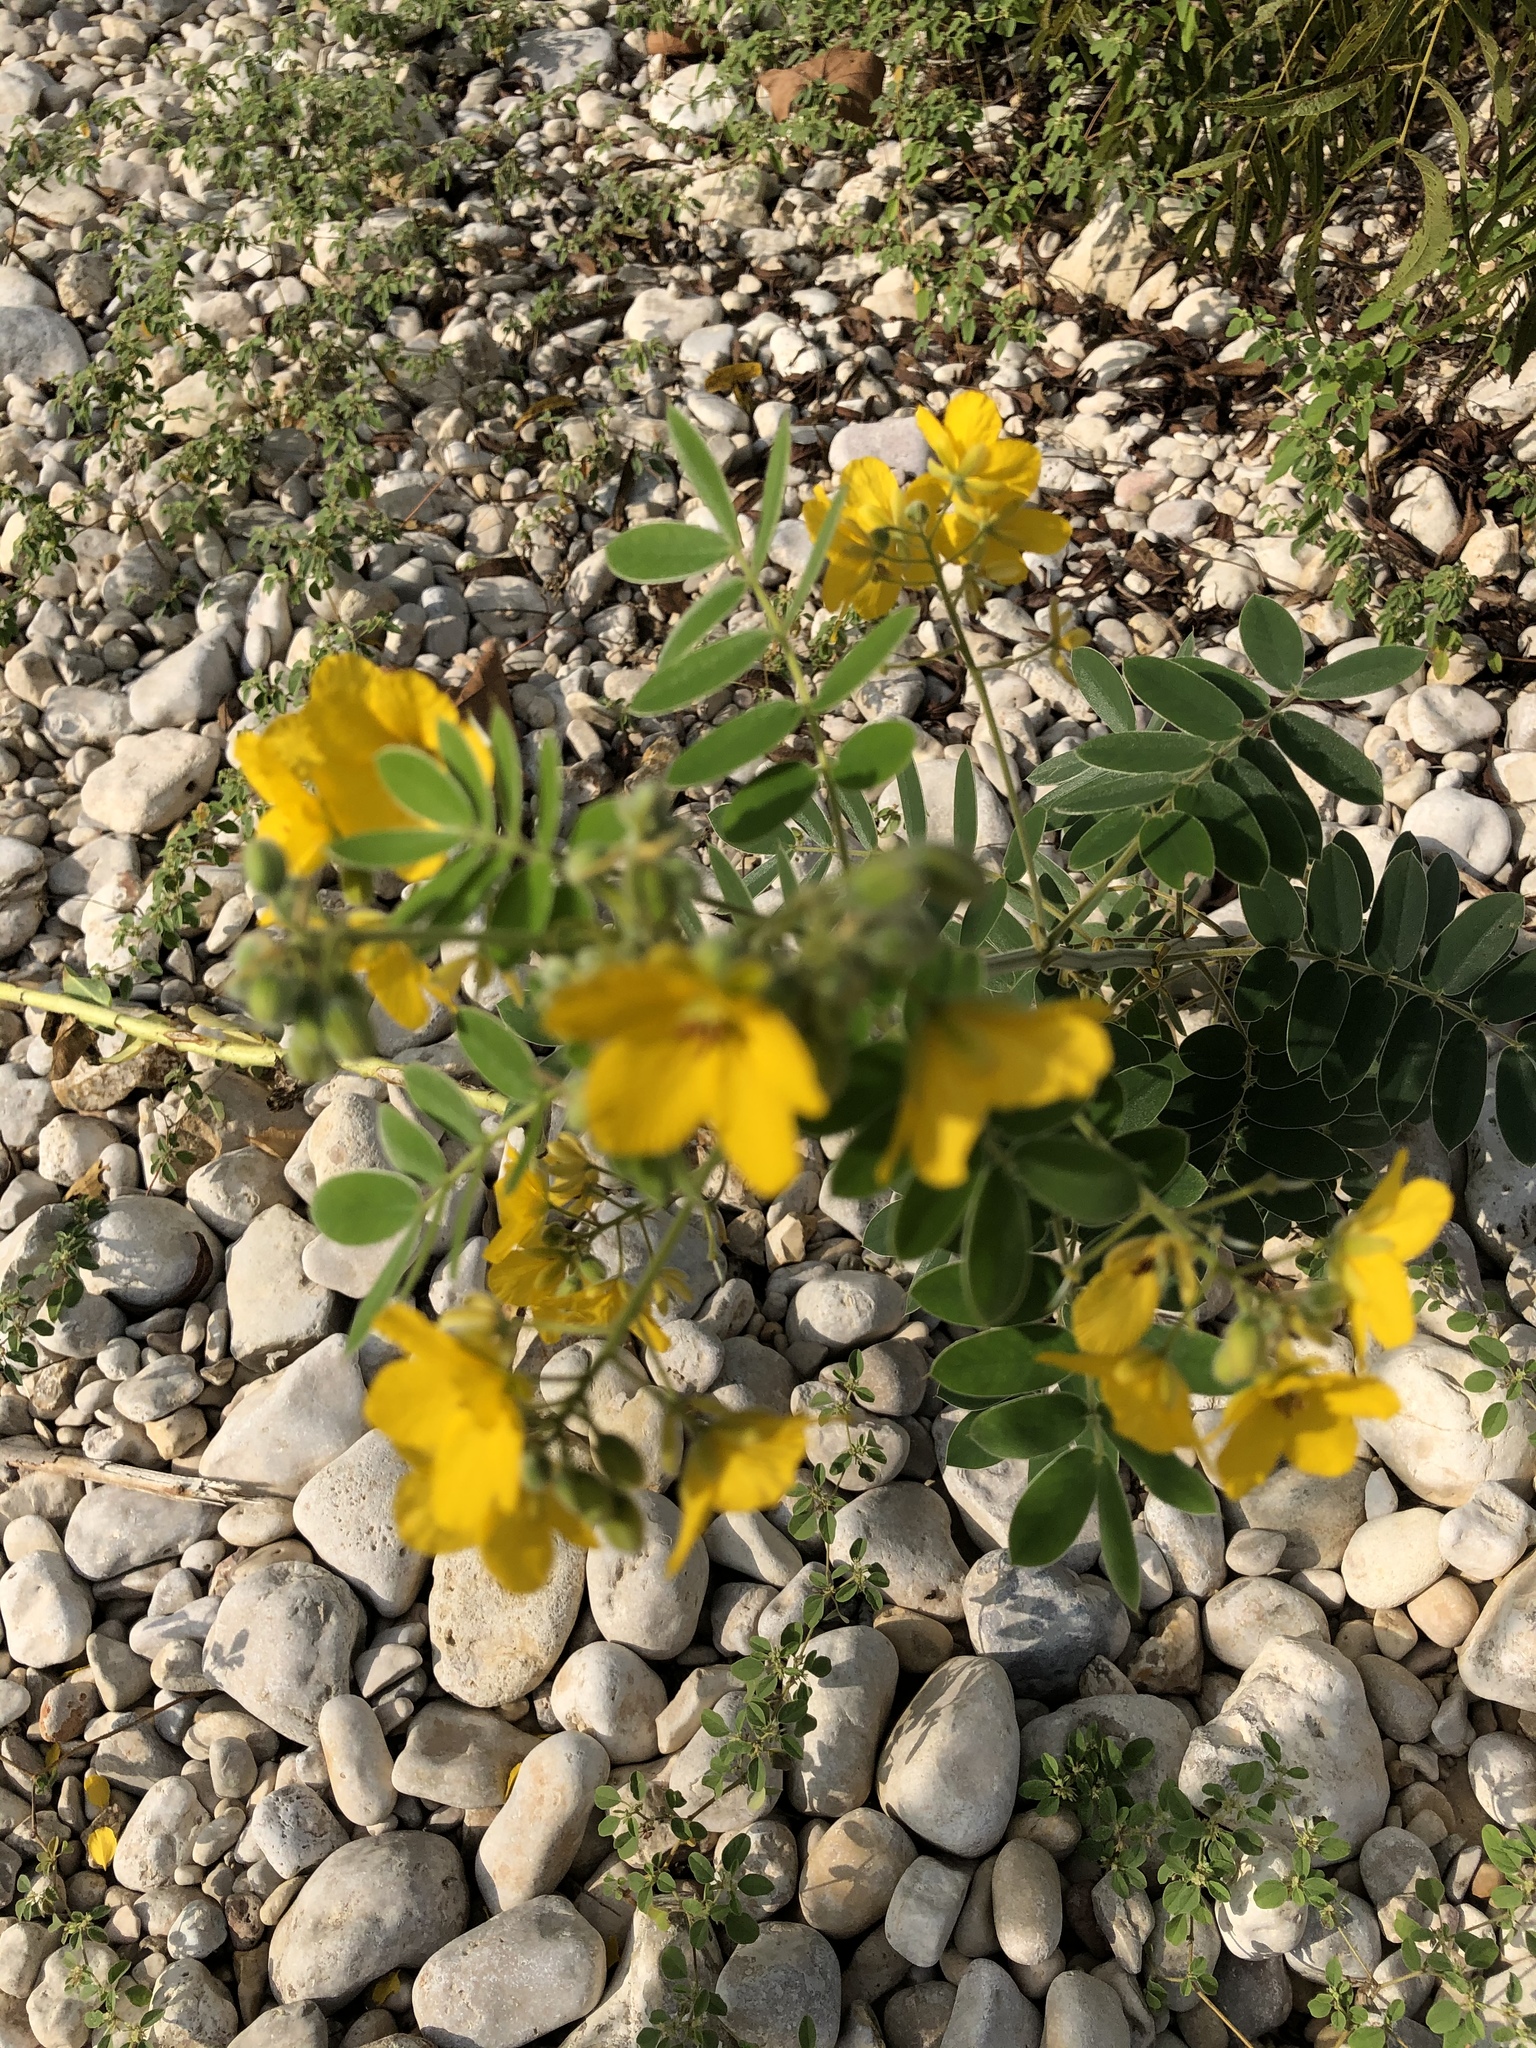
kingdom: Plantae
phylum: Tracheophyta
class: Magnoliopsida
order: Fabales
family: Fabaceae
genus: Senna
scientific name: Senna lindheimeriana
